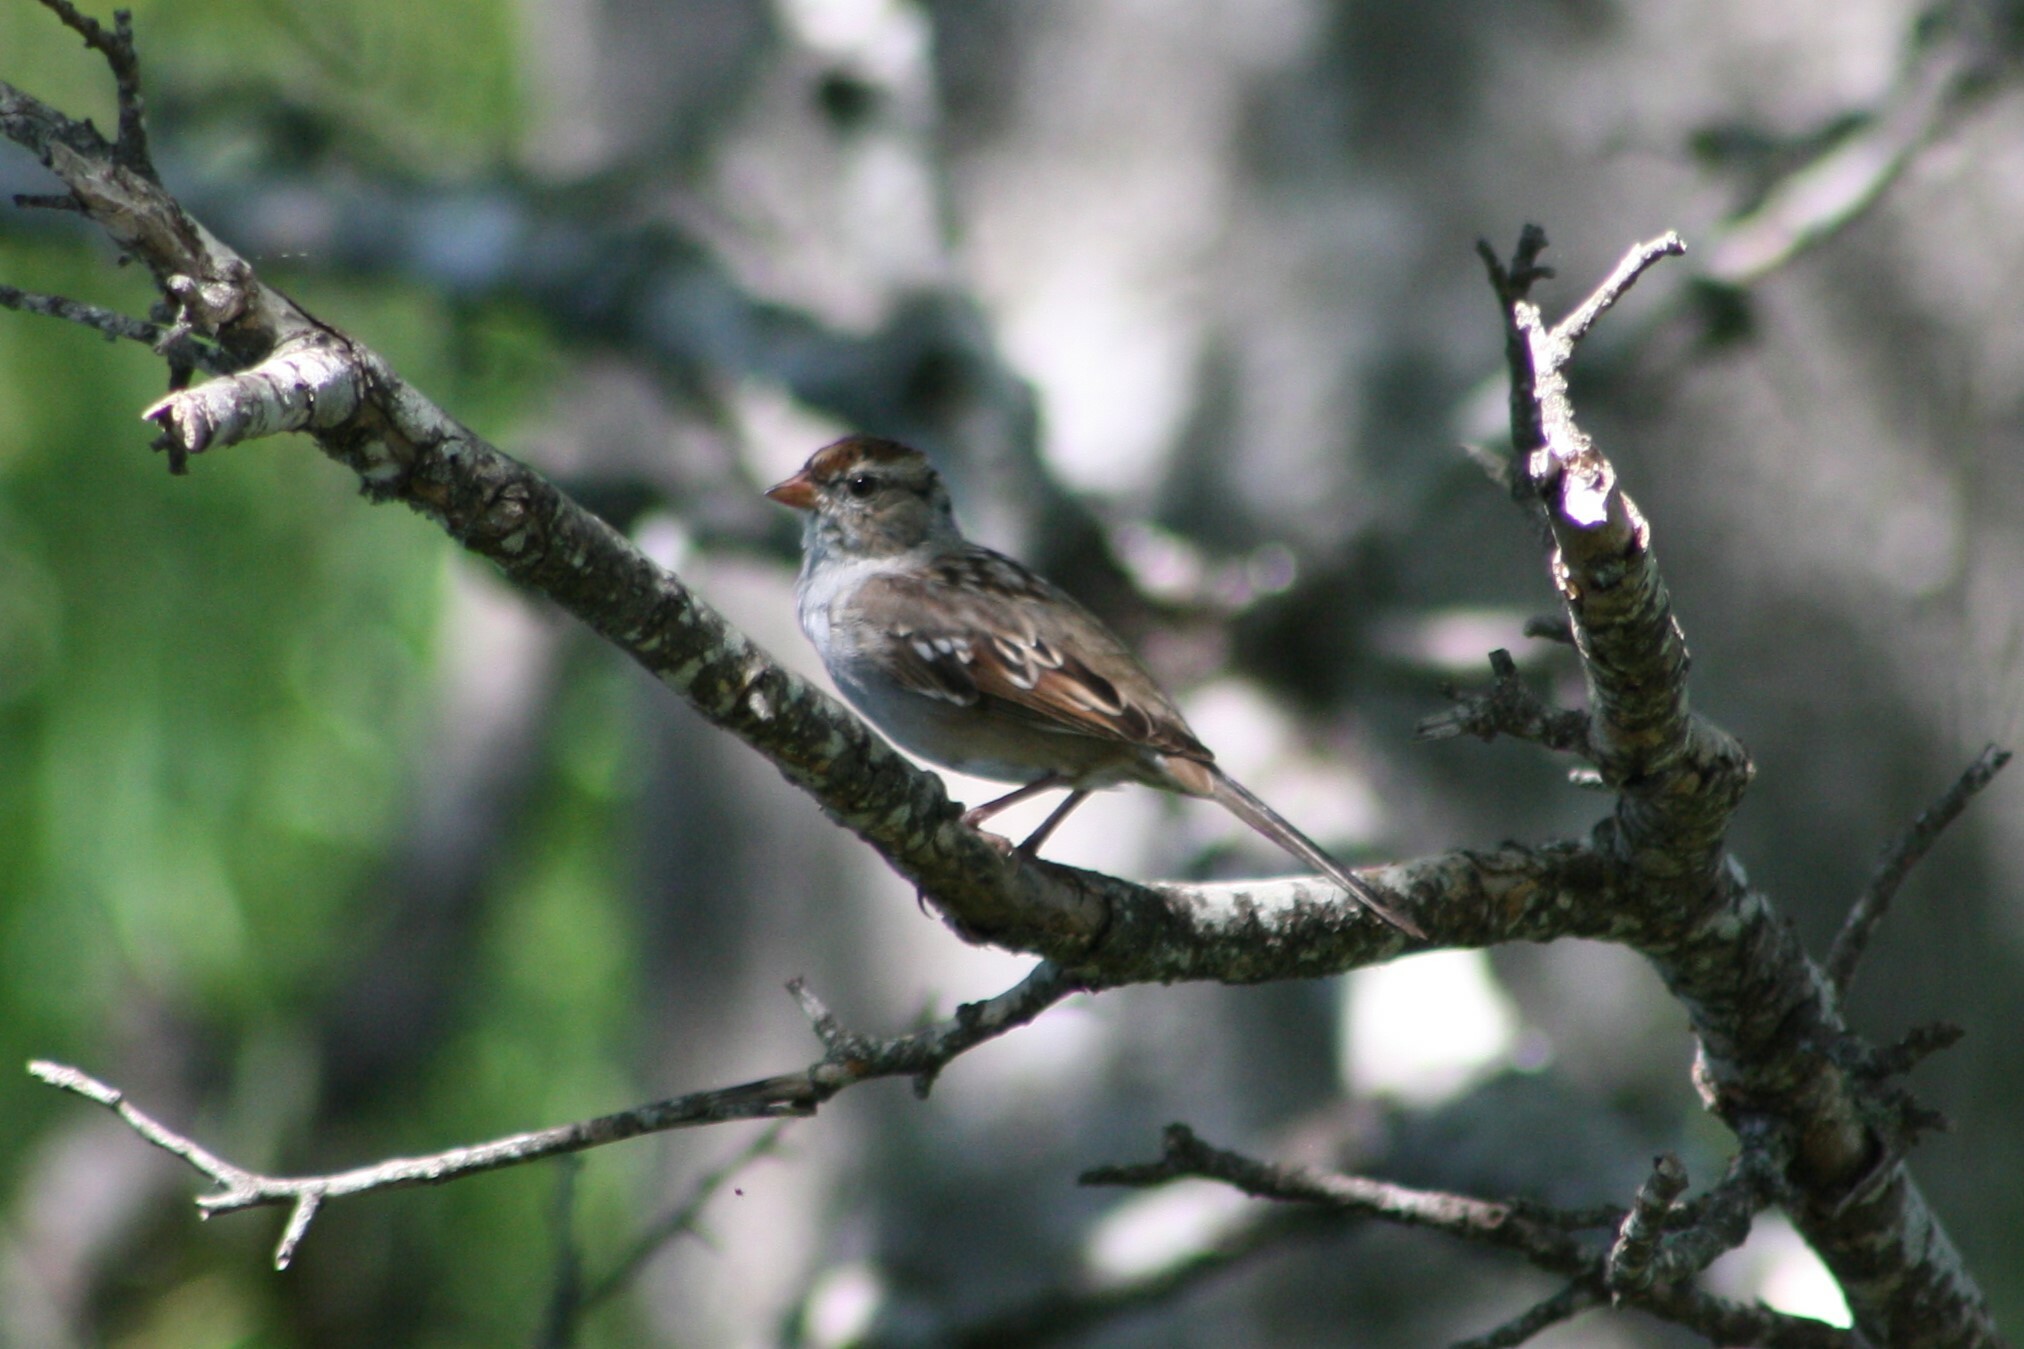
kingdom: Animalia
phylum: Chordata
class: Aves
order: Passeriformes
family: Passerellidae
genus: Zonotrichia
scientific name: Zonotrichia leucophrys
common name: White-crowned sparrow
